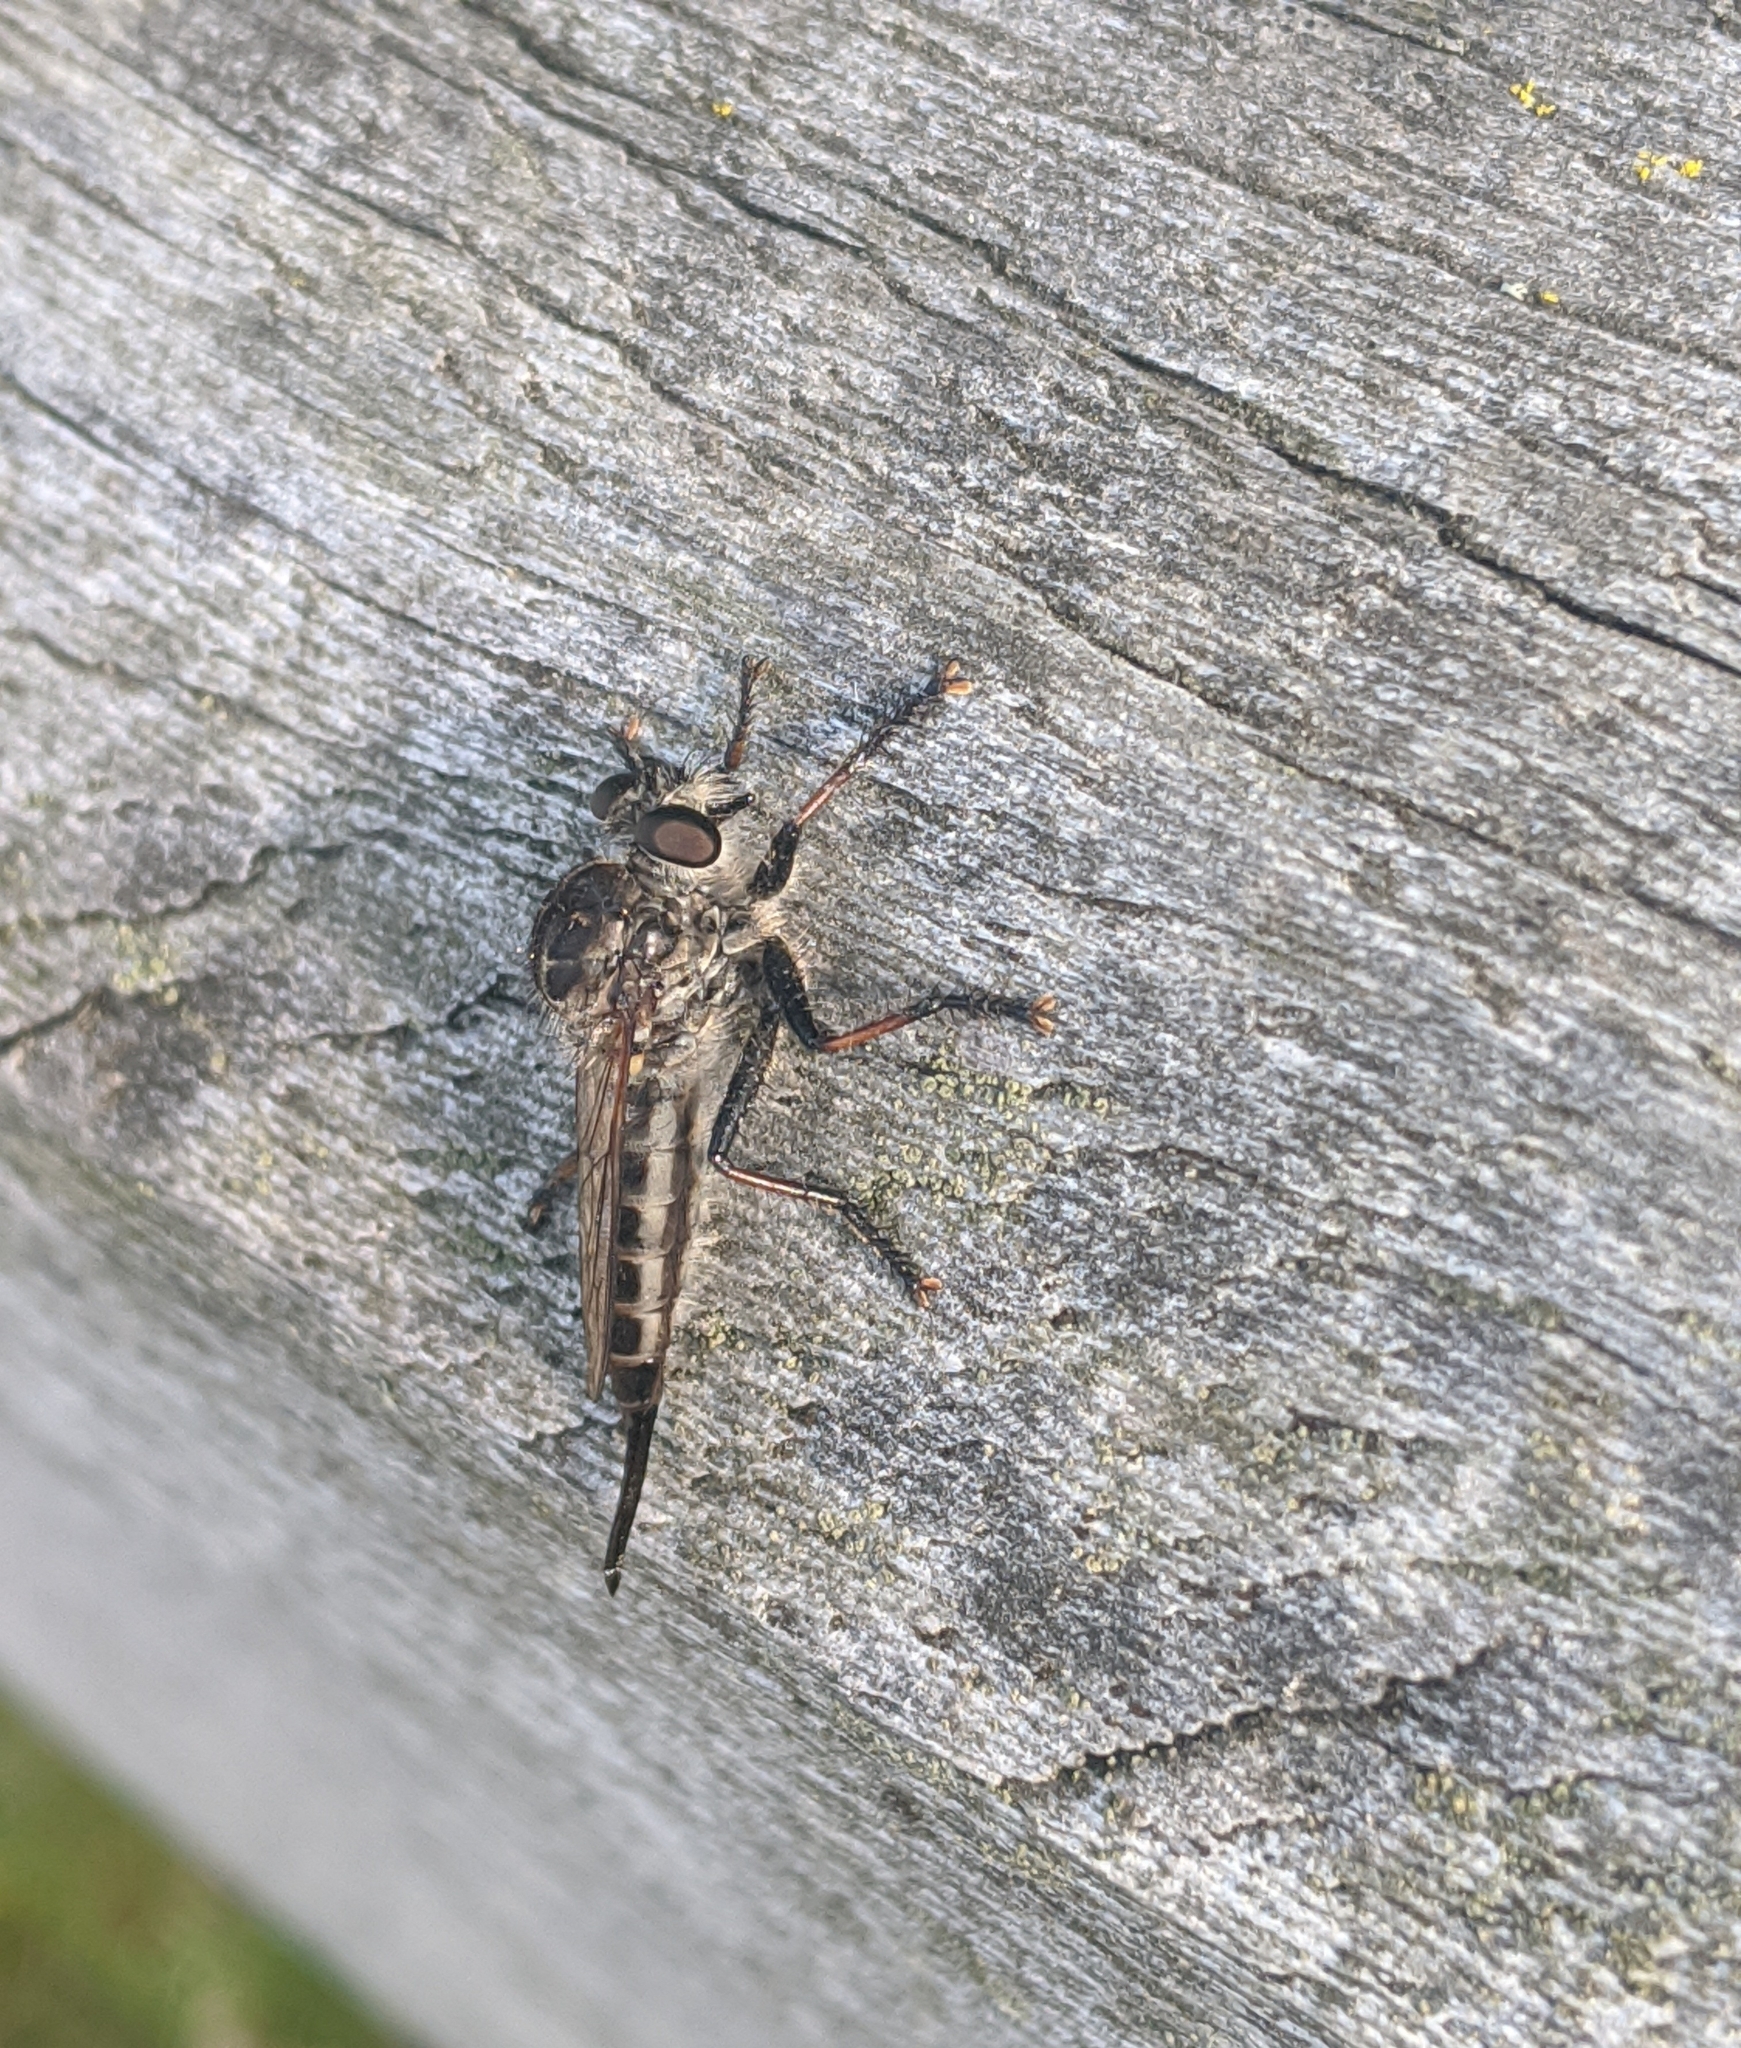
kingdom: Animalia
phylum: Arthropoda
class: Insecta
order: Diptera
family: Asilidae
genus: Efferia
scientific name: Efferia aestuans
